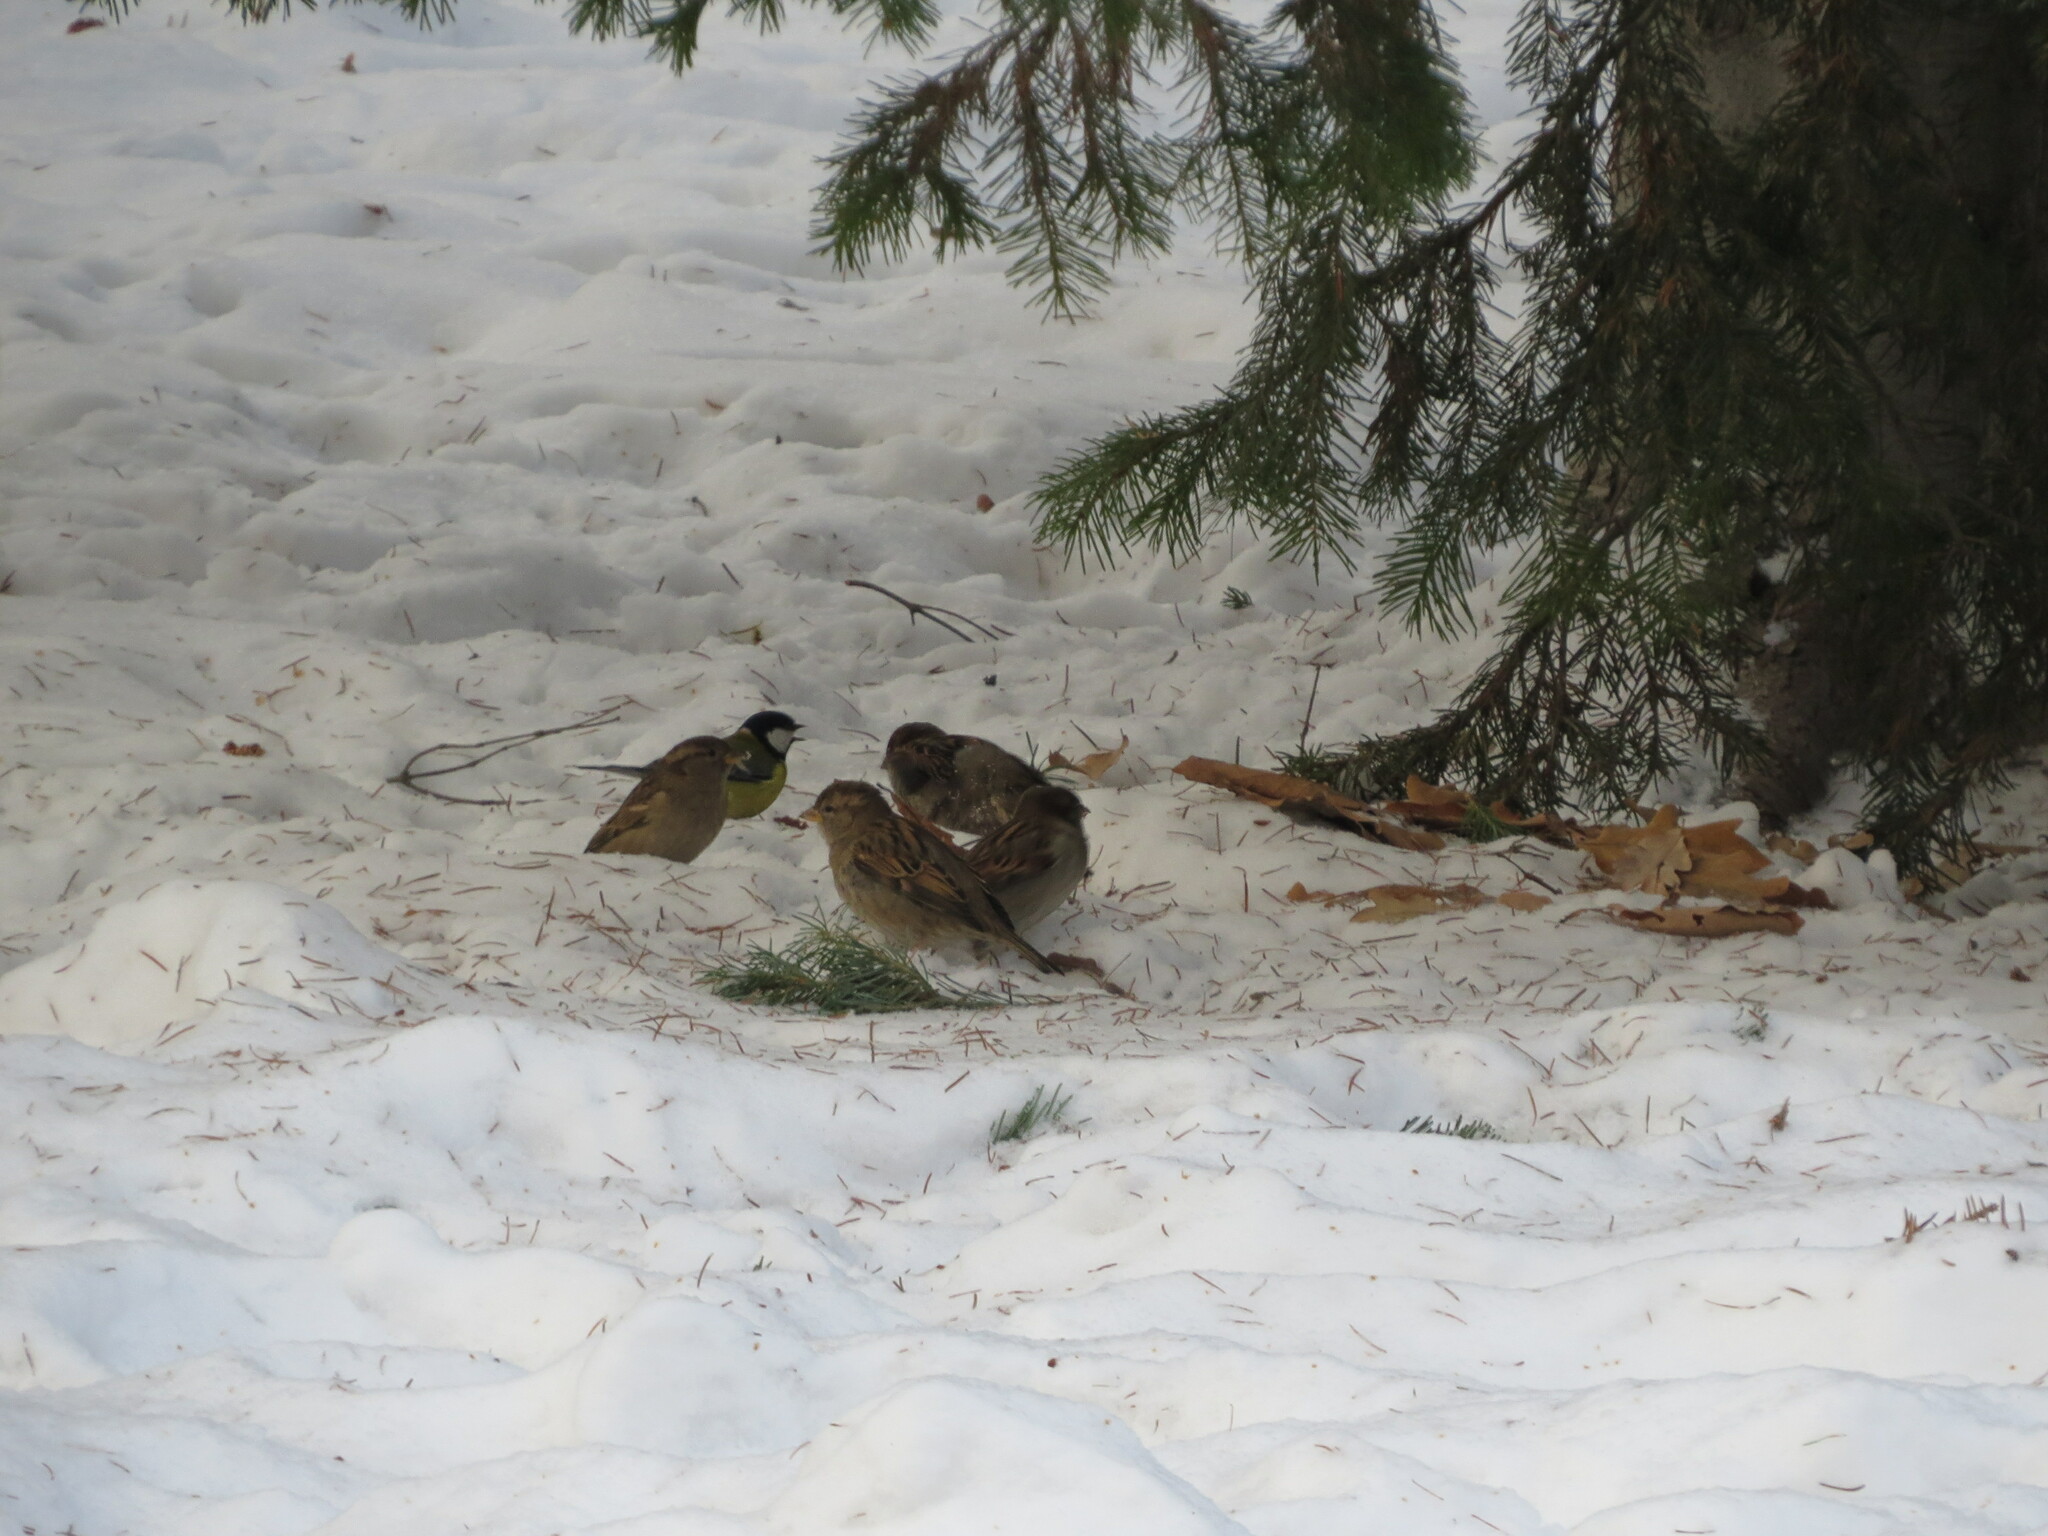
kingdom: Animalia
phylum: Chordata
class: Aves
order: Passeriformes
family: Passeridae
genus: Passer
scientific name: Passer domesticus
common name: House sparrow
